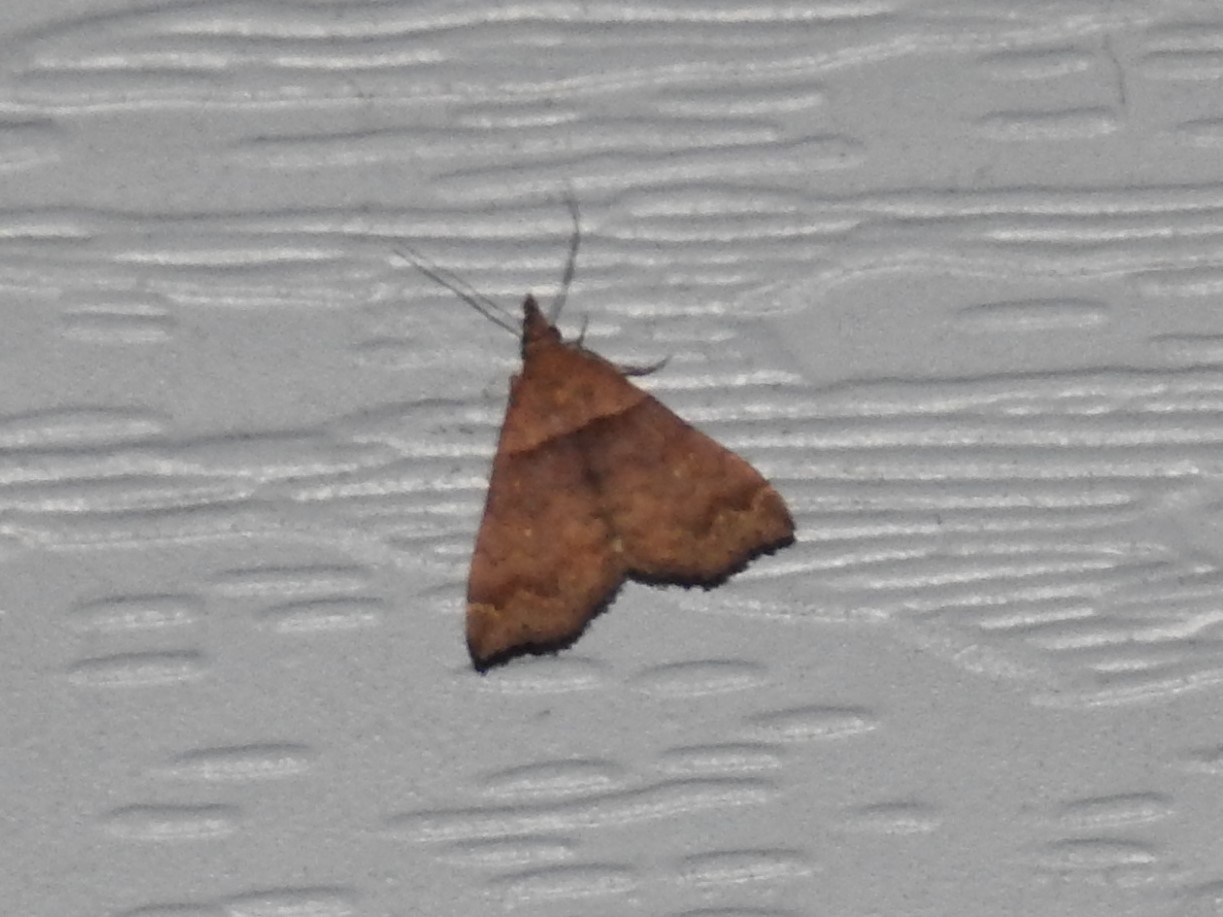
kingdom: Animalia
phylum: Arthropoda
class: Insecta
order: Lepidoptera
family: Erebidae
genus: Lascoria
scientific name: Lascoria ambigualis
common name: Ambiguous moth
